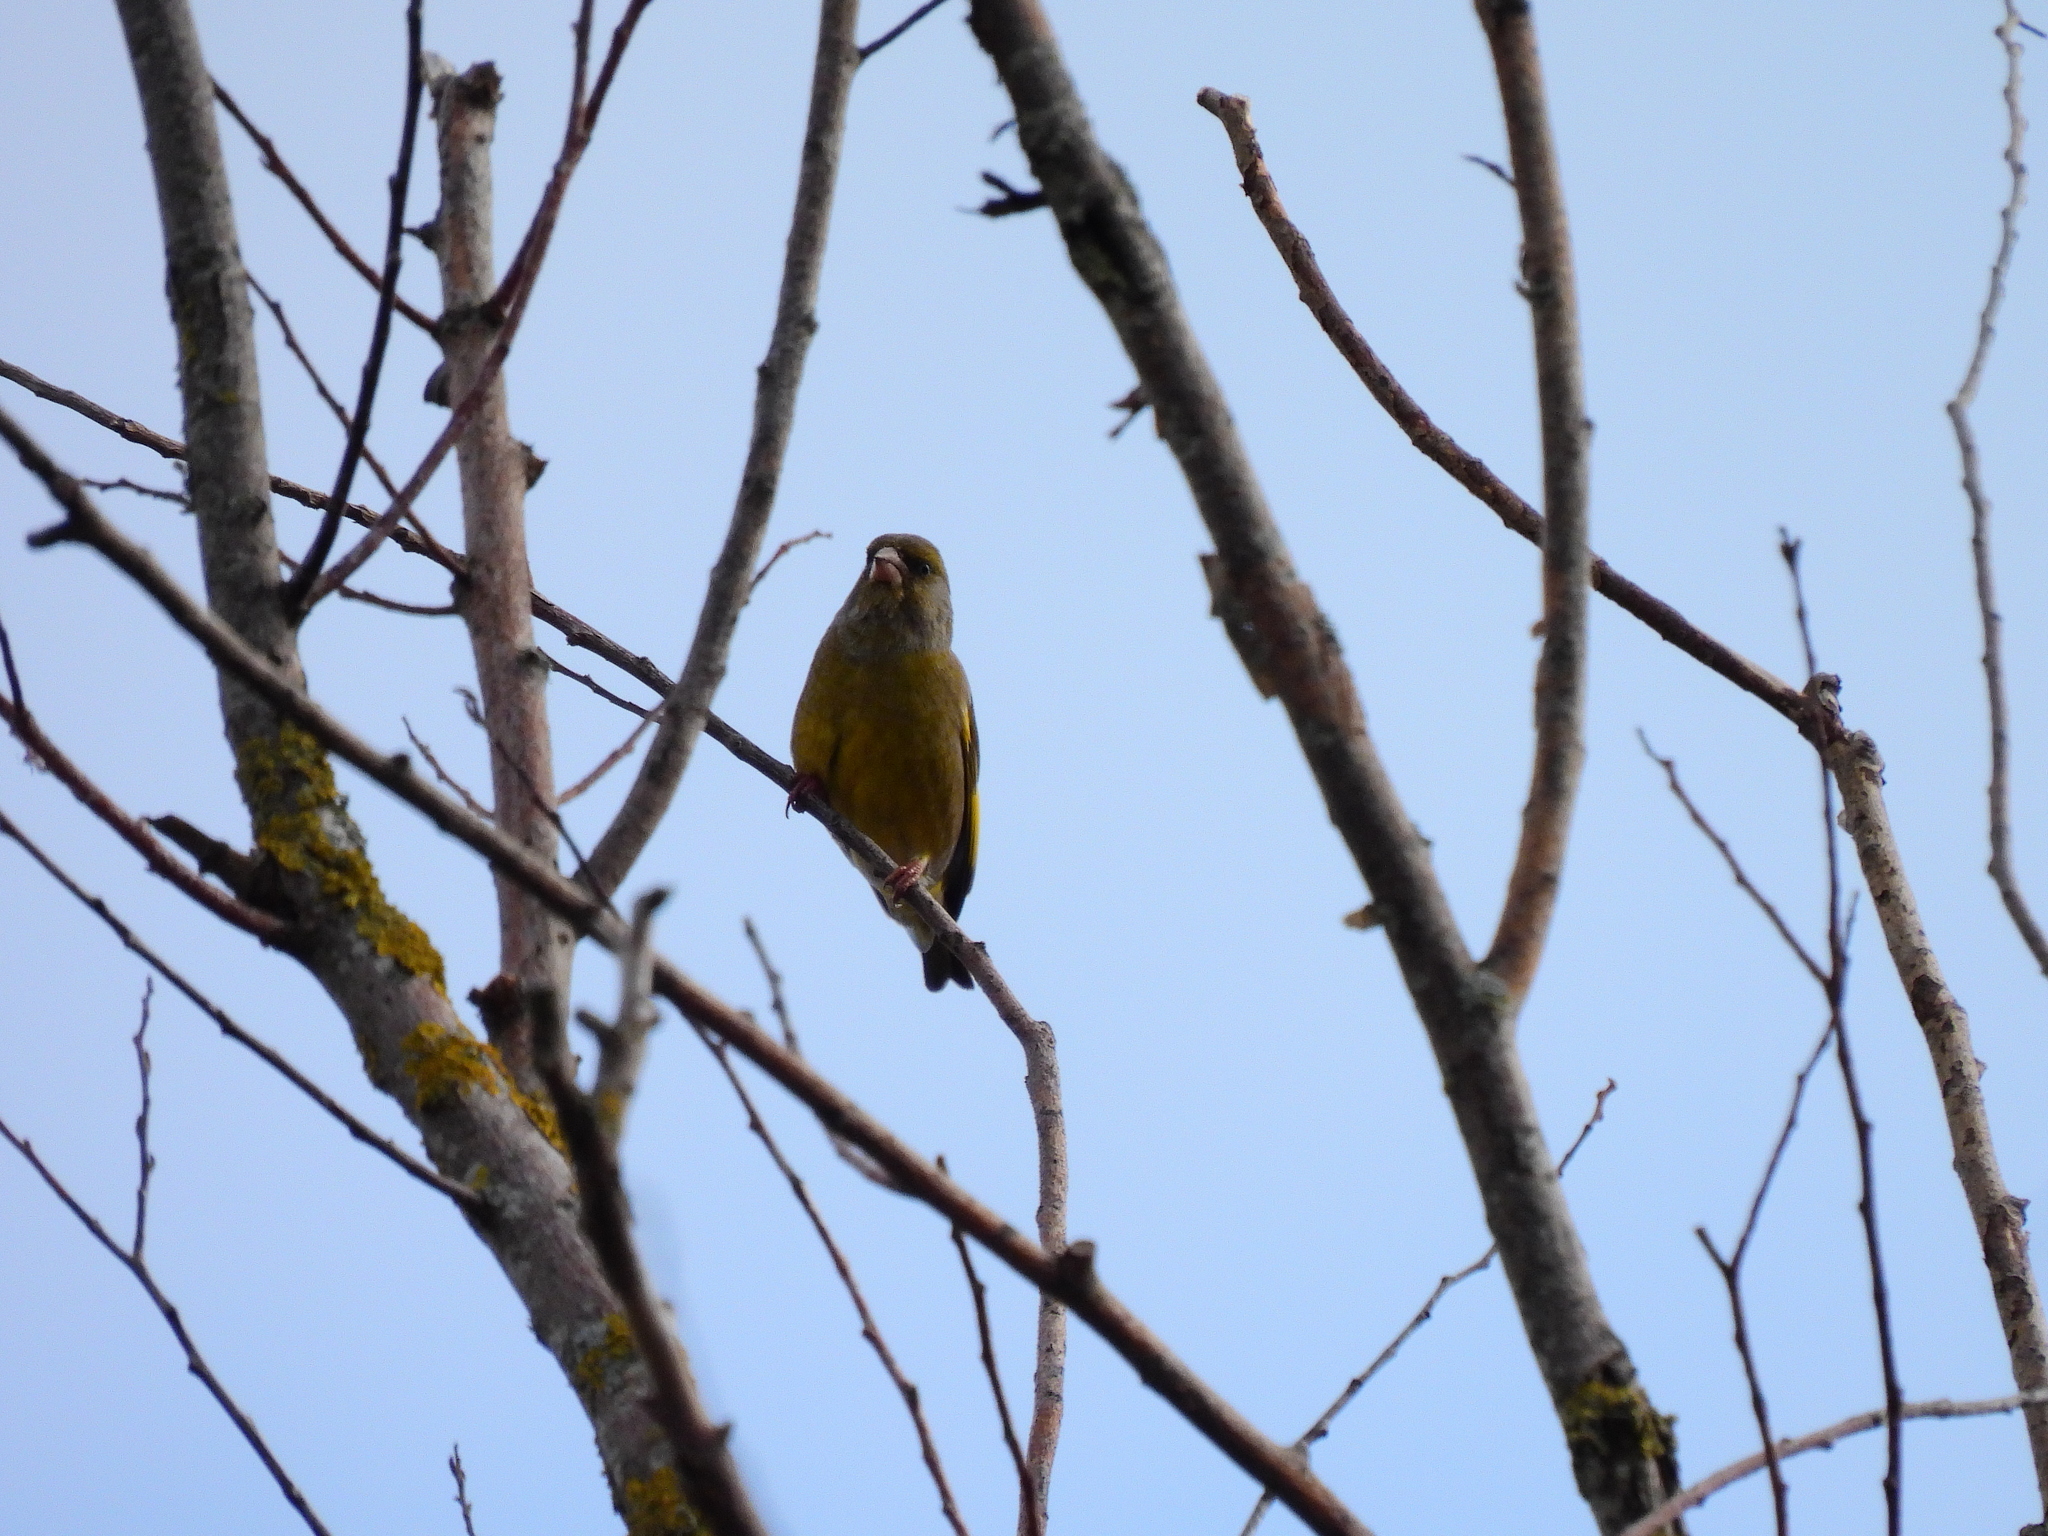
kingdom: Plantae
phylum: Tracheophyta
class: Liliopsida
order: Poales
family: Poaceae
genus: Chloris
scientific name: Chloris chloris
